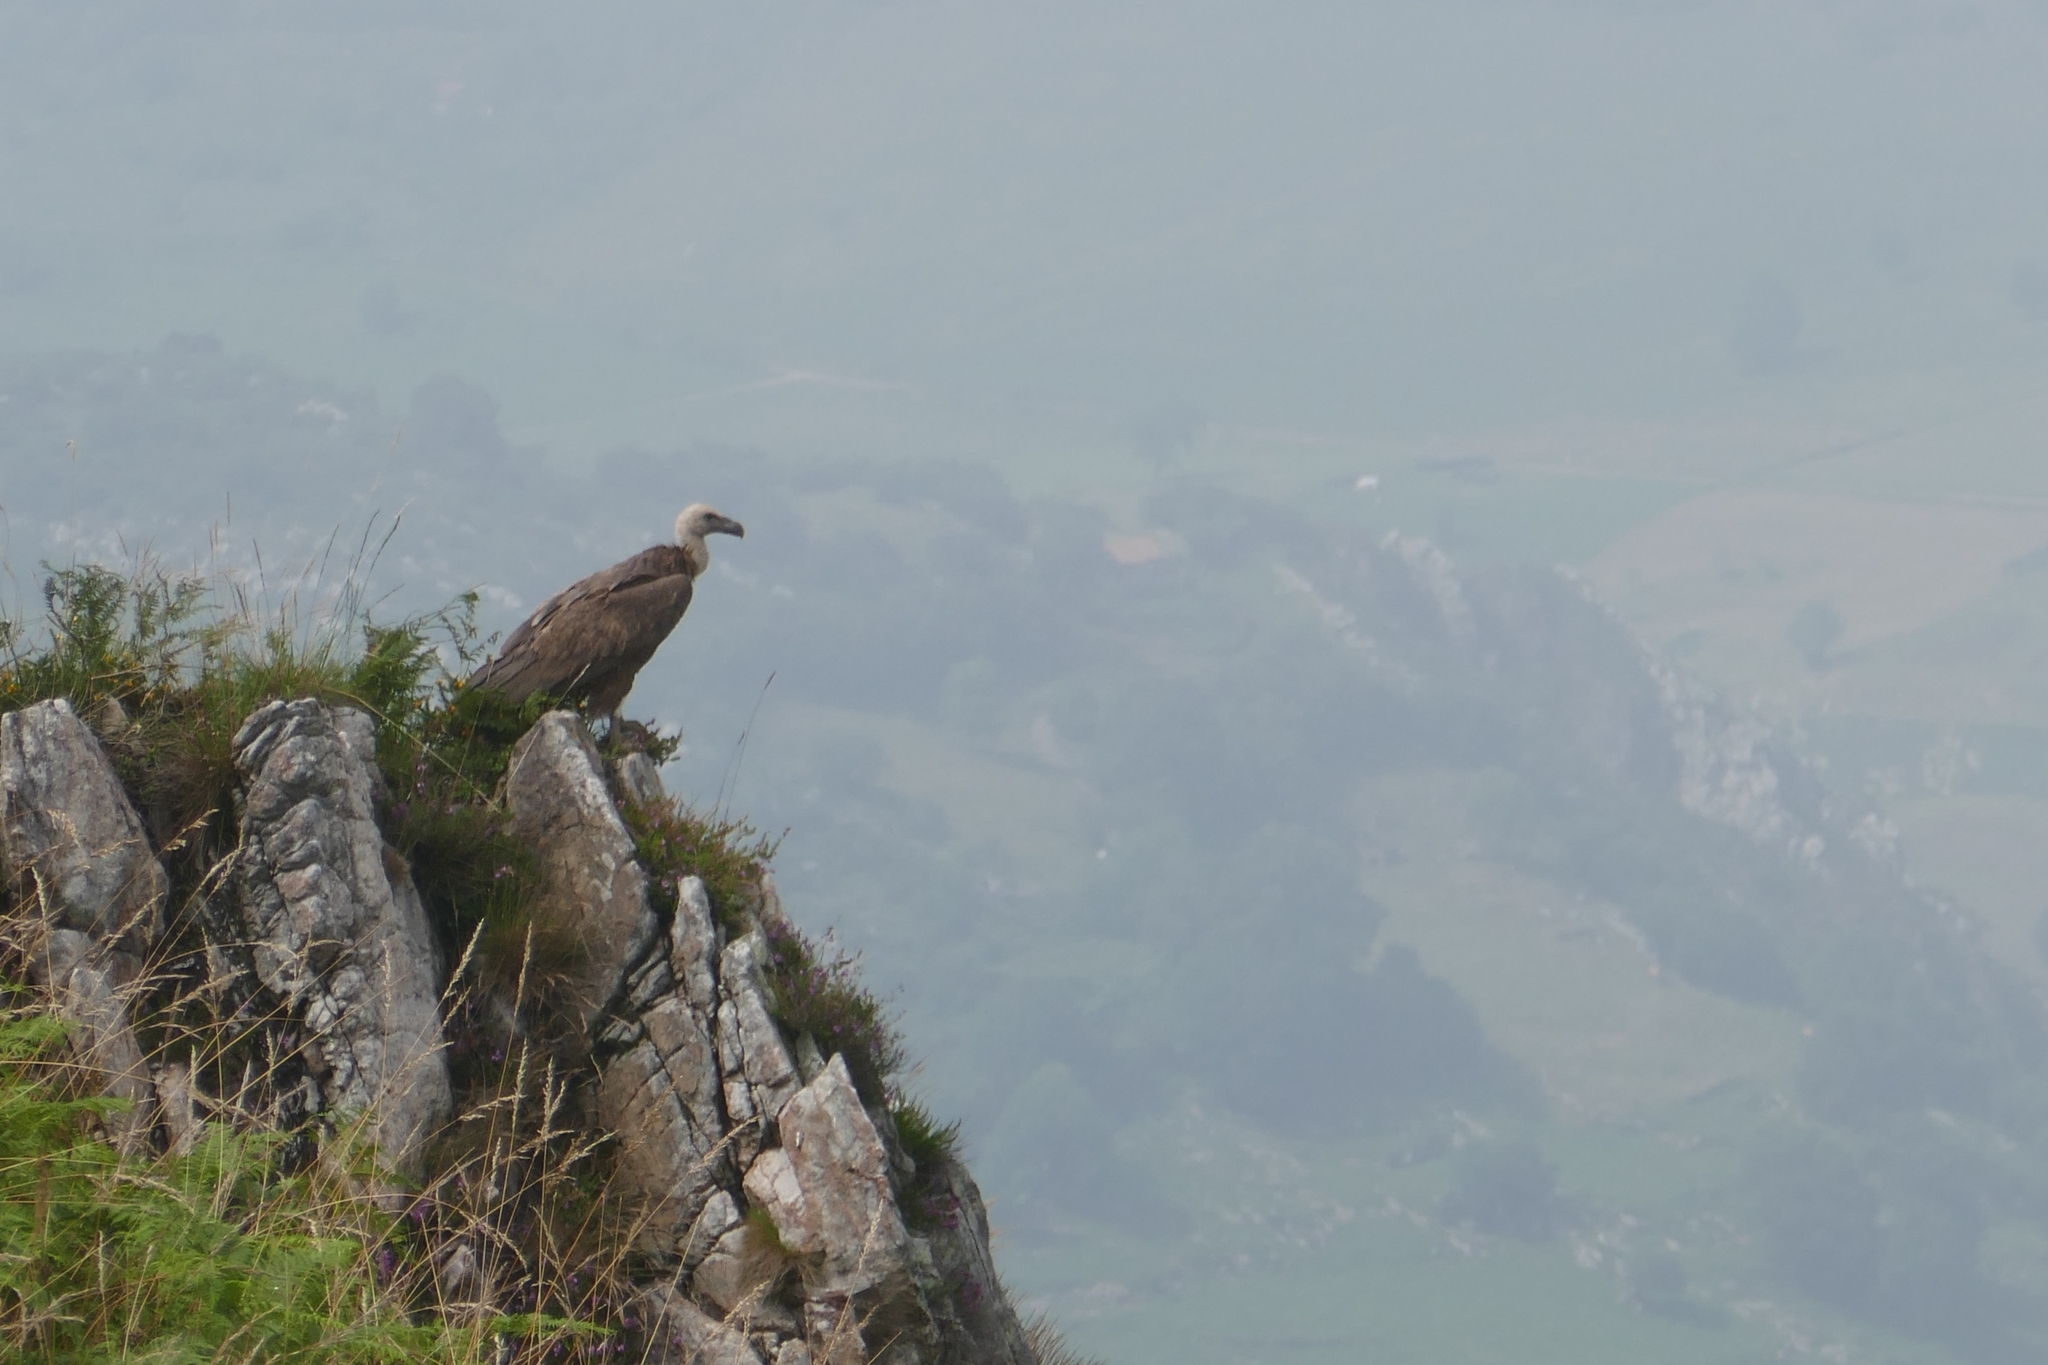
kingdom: Animalia
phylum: Chordata
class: Aves
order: Accipitriformes
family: Accipitridae
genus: Gyps
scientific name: Gyps fulvus
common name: Griffon vulture
